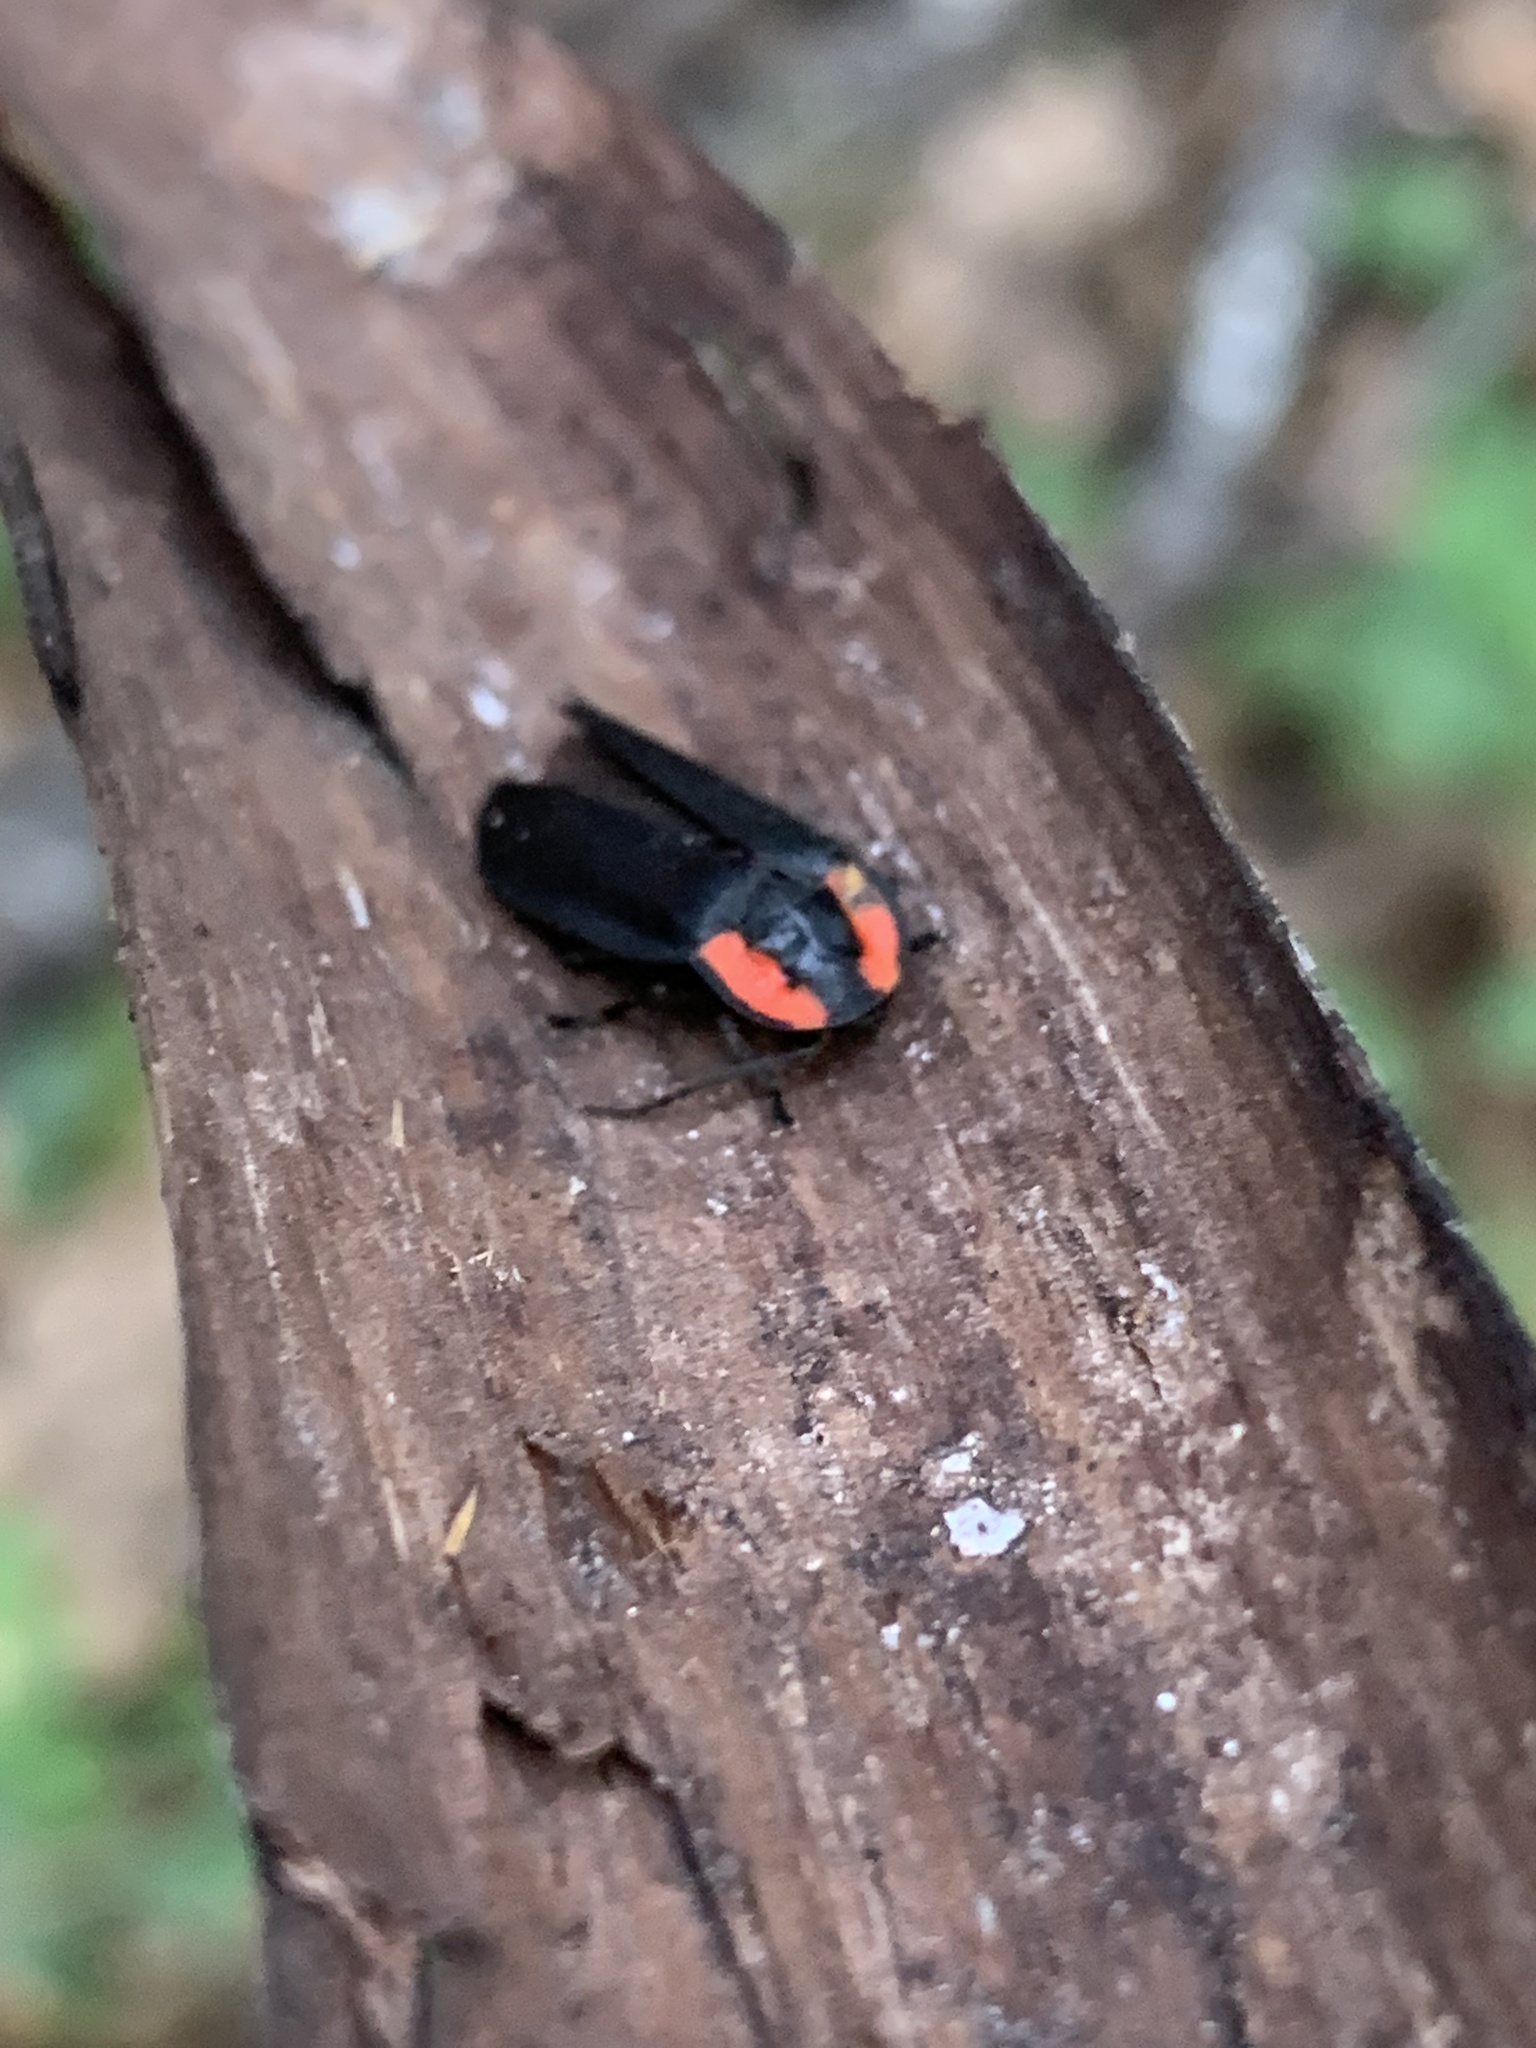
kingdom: Animalia
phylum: Arthropoda
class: Insecta
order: Coleoptera
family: Lampyridae
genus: Photinus
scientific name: Photinus californica
